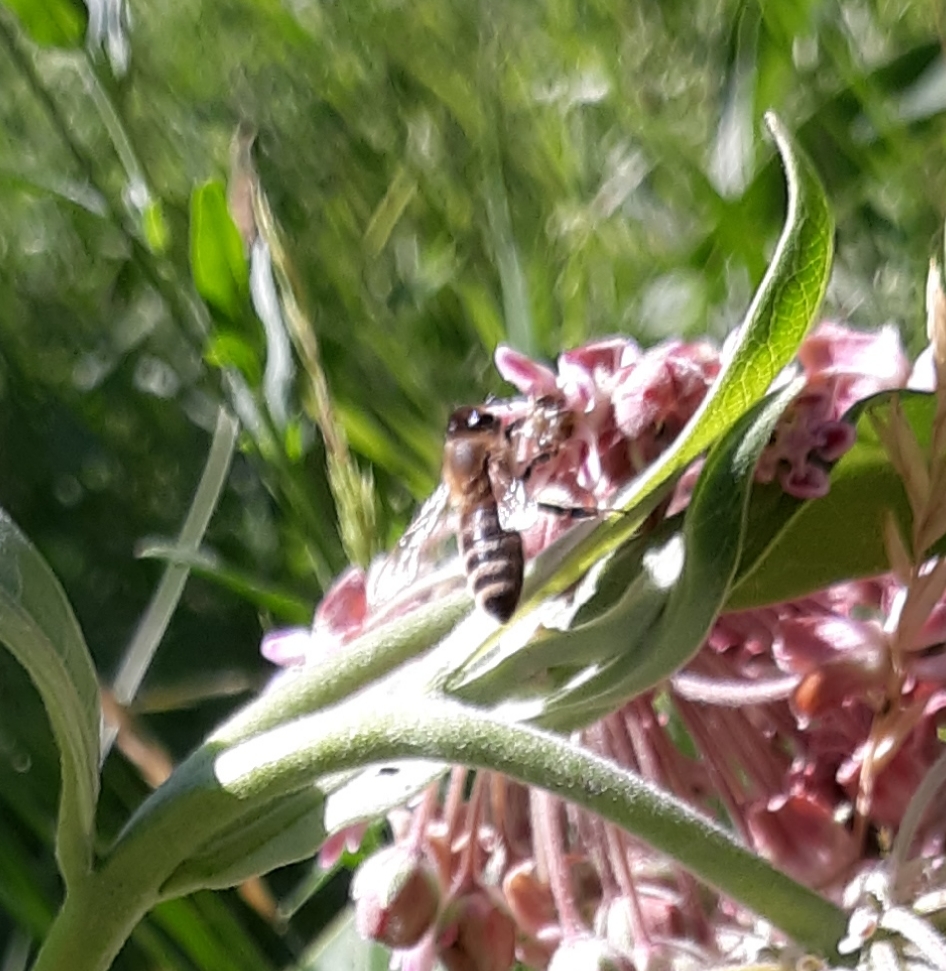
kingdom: Animalia
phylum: Arthropoda
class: Insecta
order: Hymenoptera
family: Apidae
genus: Apis
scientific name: Apis mellifera
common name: Honey bee
